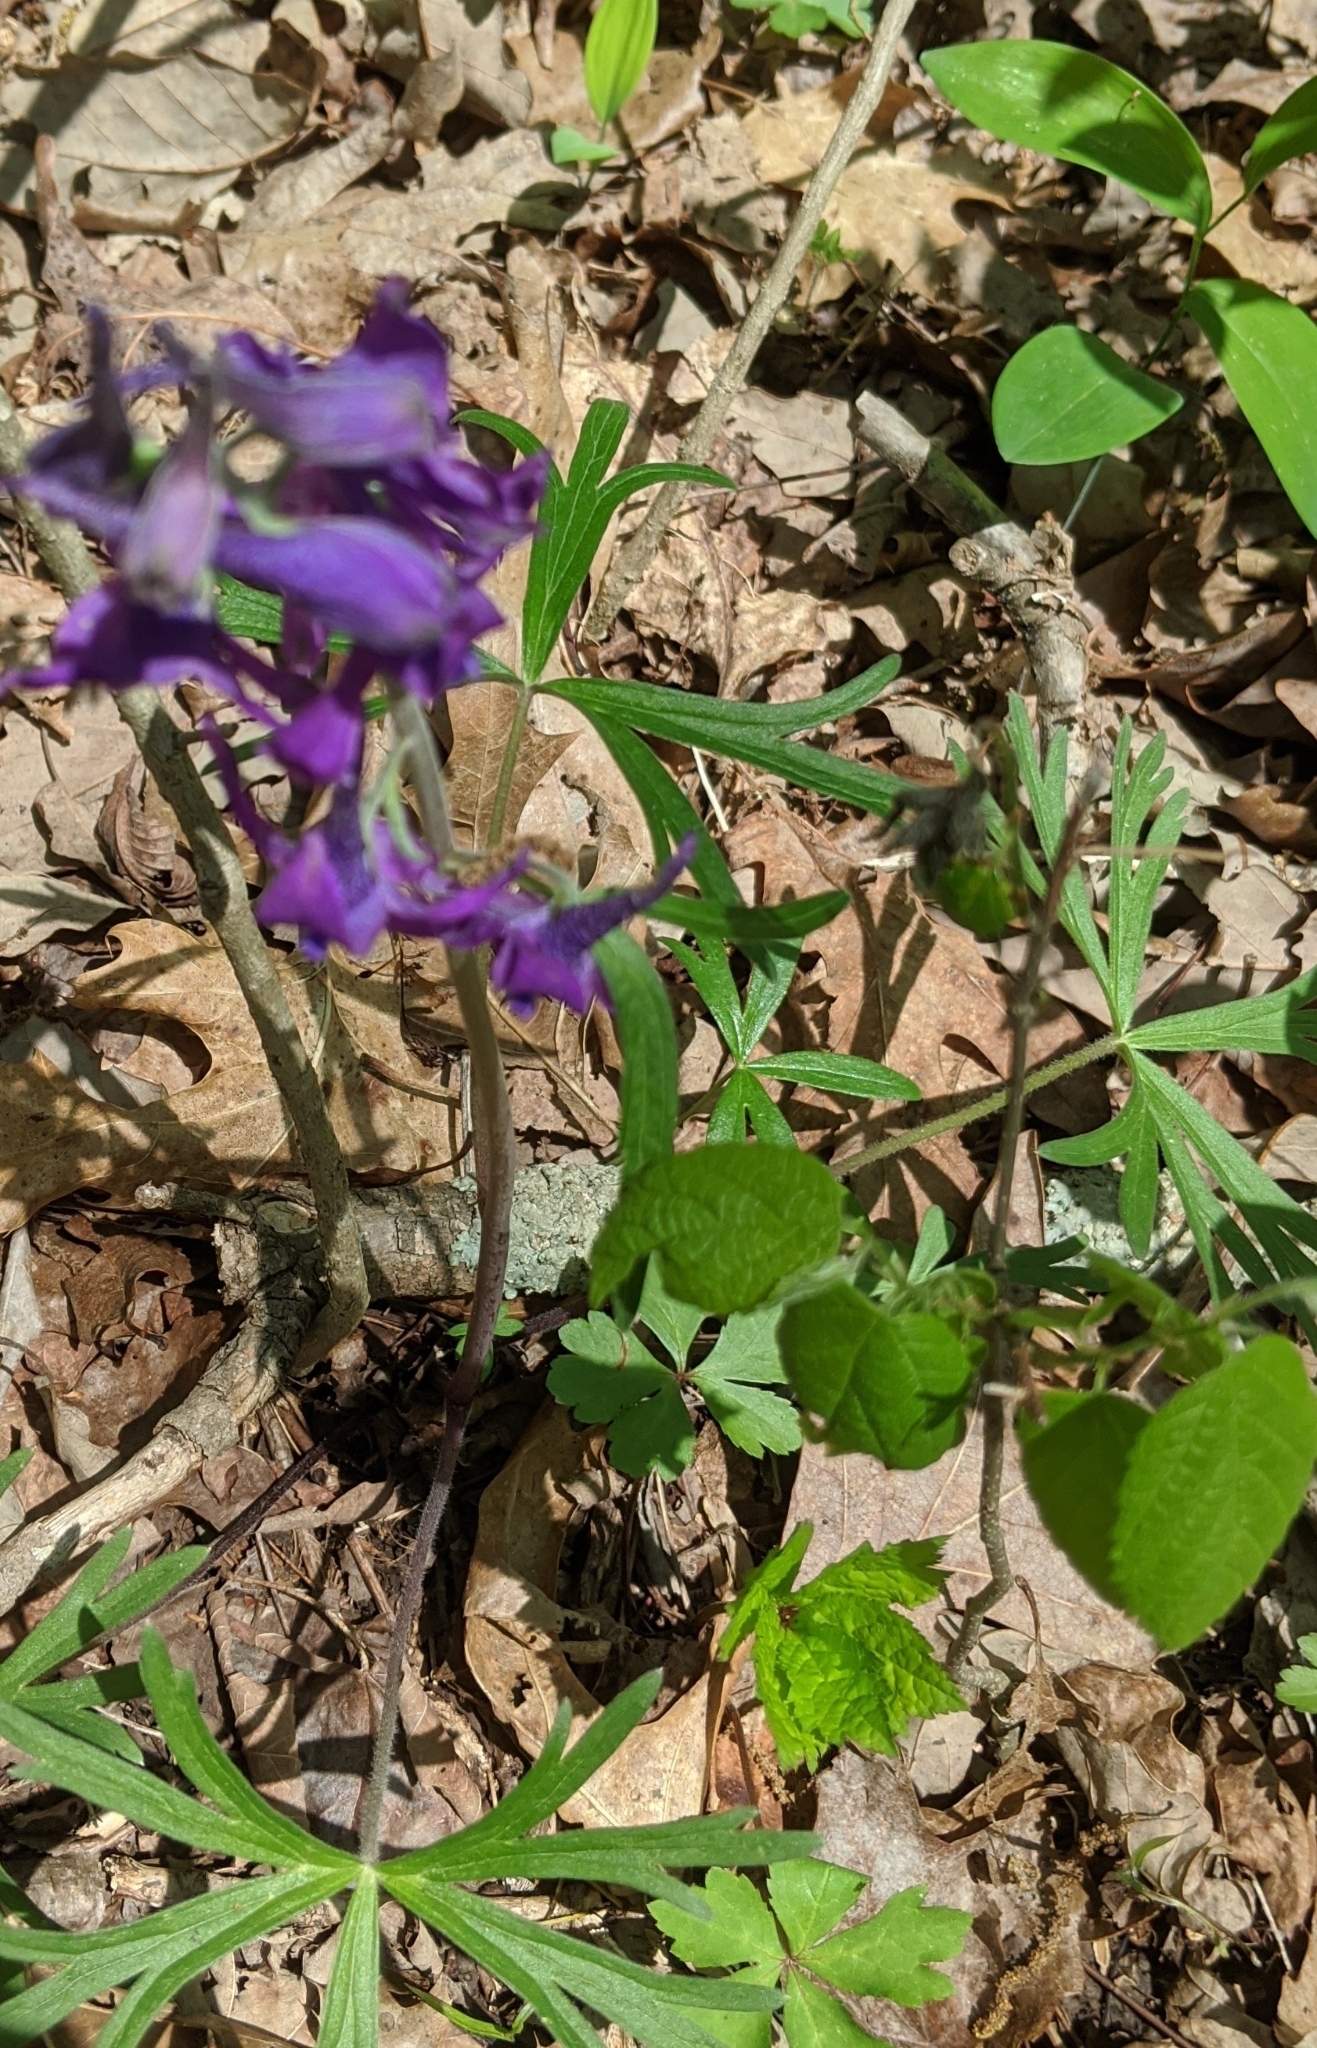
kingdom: Plantae
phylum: Tracheophyta
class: Magnoliopsida
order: Ranunculales
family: Ranunculaceae
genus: Delphinium
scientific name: Delphinium tricorne
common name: Dwarf larkspur
